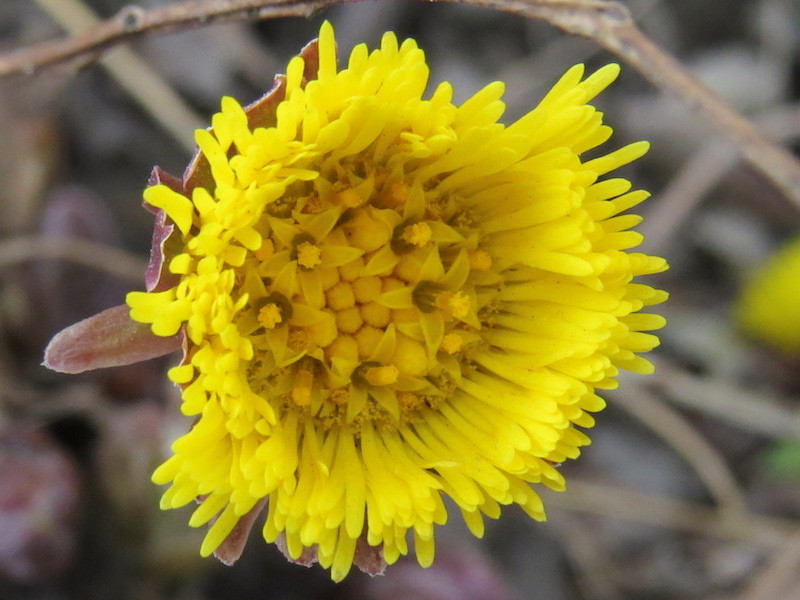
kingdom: Plantae
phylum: Tracheophyta
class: Magnoliopsida
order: Asterales
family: Asteraceae
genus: Tussilago
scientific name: Tussilago farfara
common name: Coltsfoot
